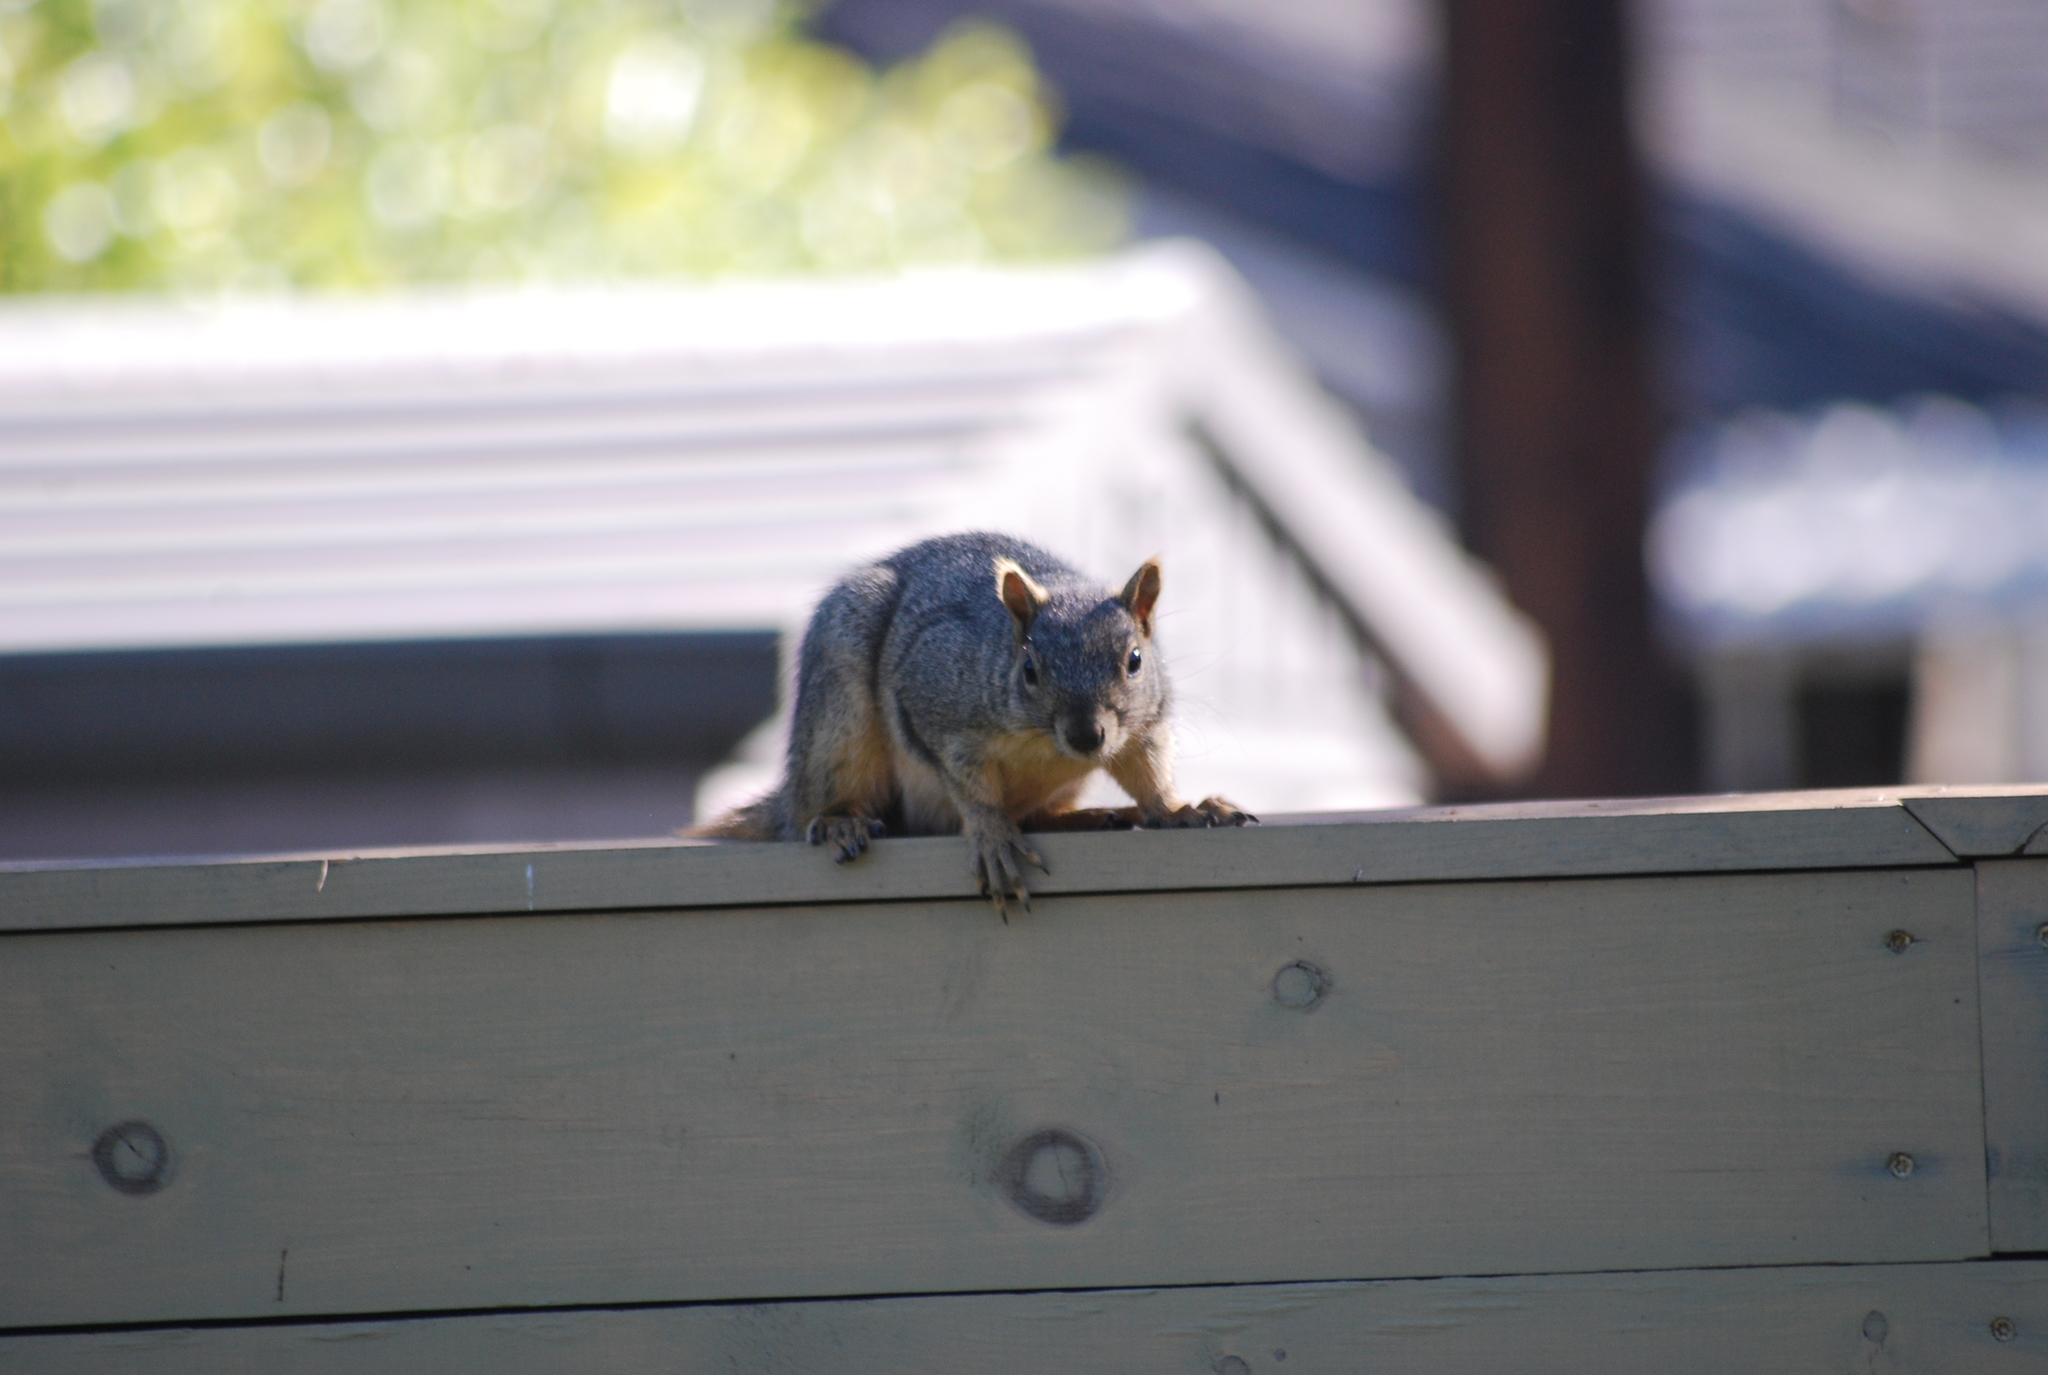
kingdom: Animalia
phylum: Chordata
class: Mammalia
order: Rodentia
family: Sciuridae
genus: Sciurus
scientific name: Sciurus niger
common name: Fox squirrel
